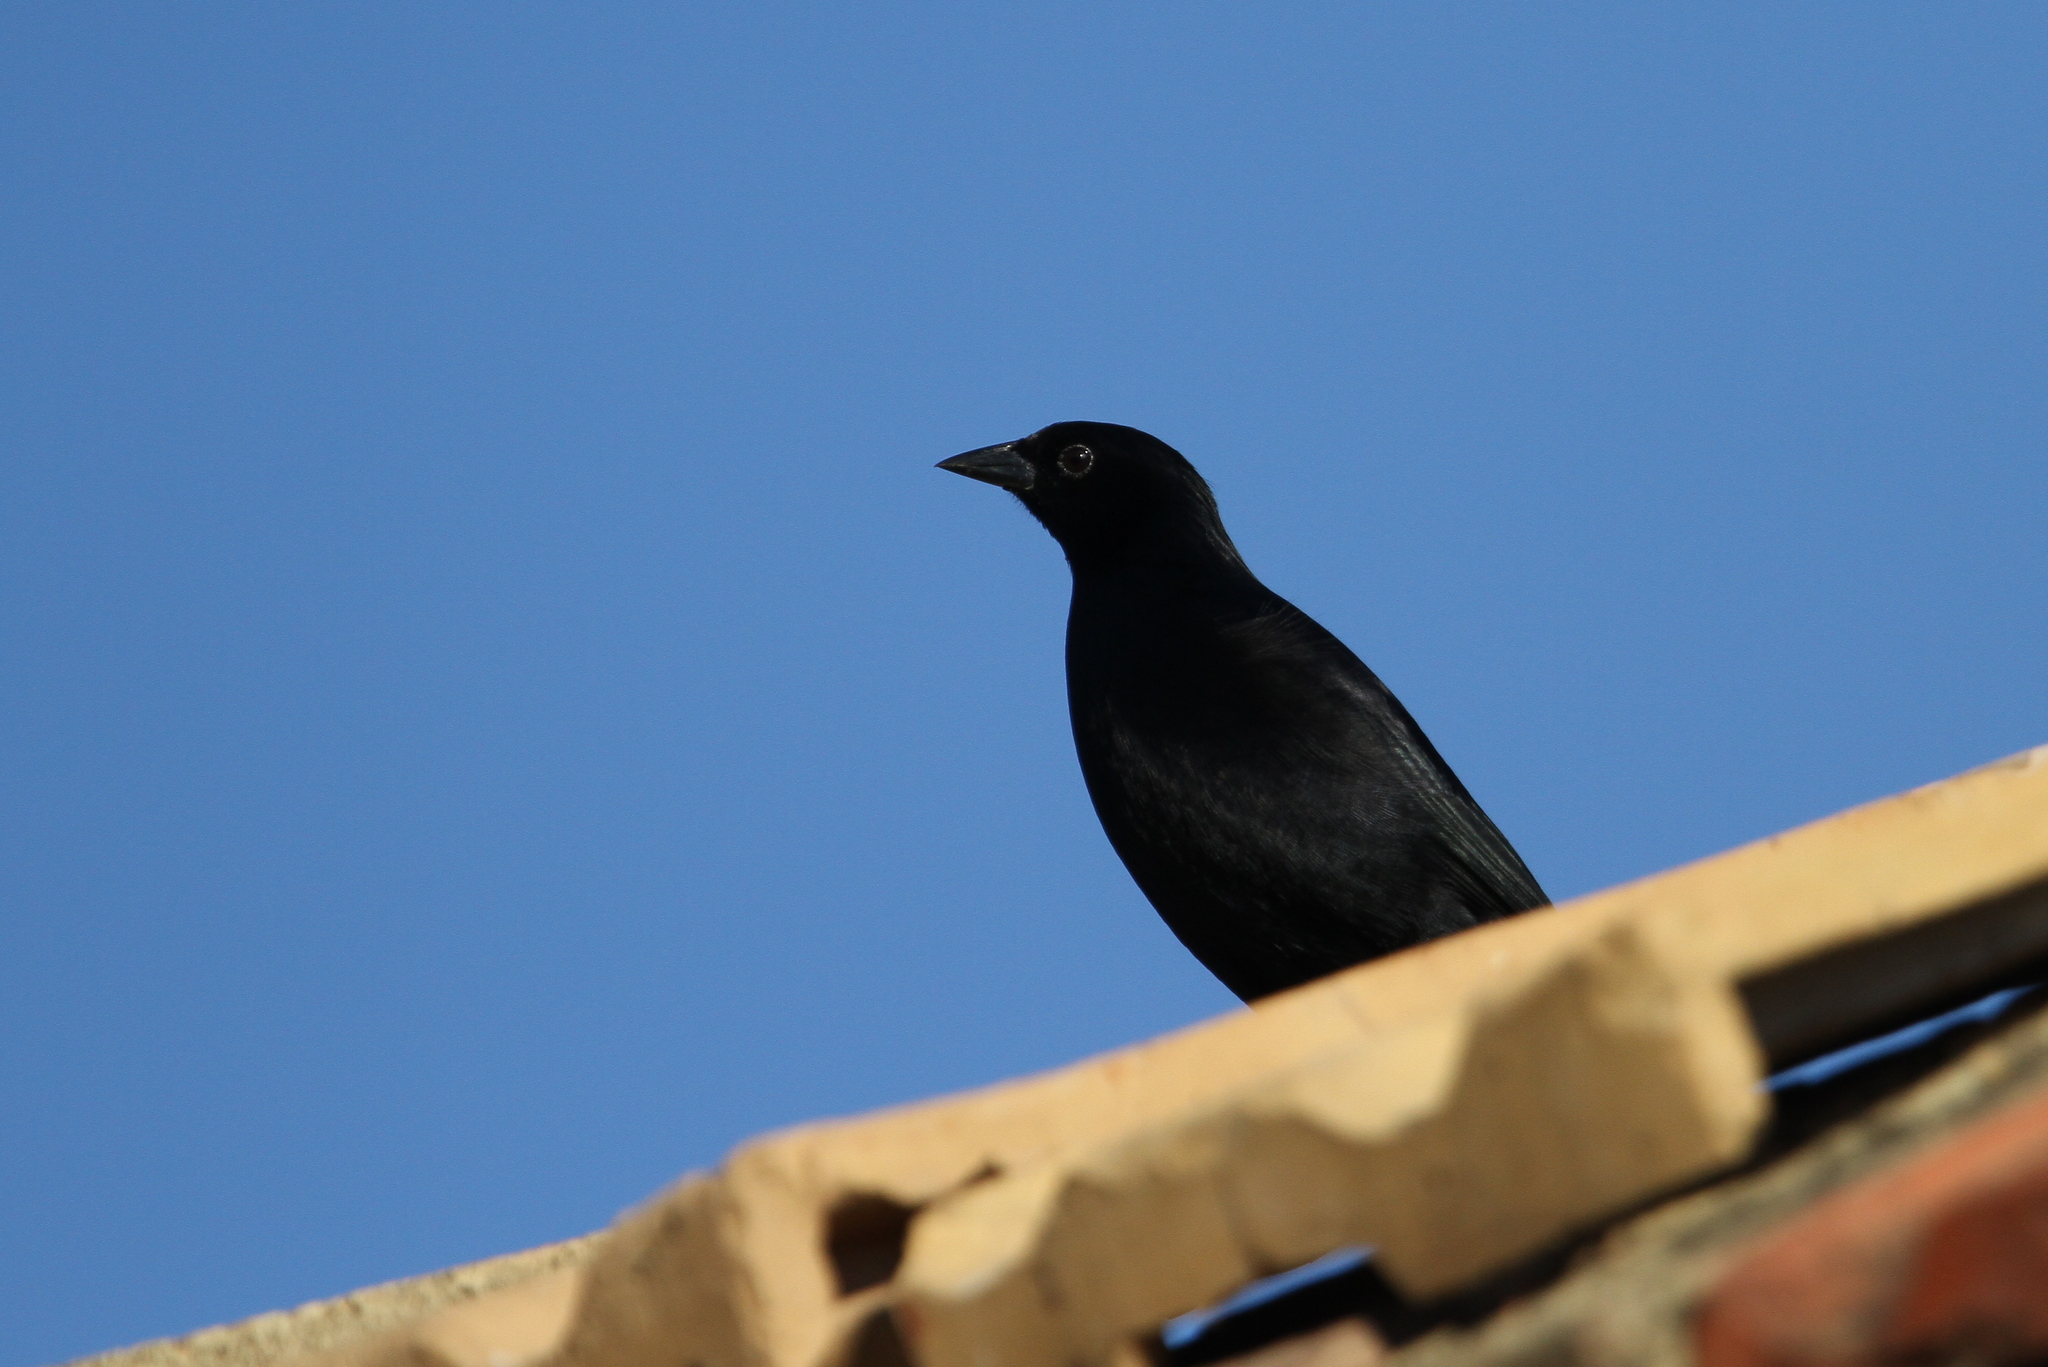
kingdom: Animalia
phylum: Chordata
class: Aves
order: Passeriformes
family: Icteridae
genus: Dives
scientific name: Dives atroviolaceus
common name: Cuban blackbird
